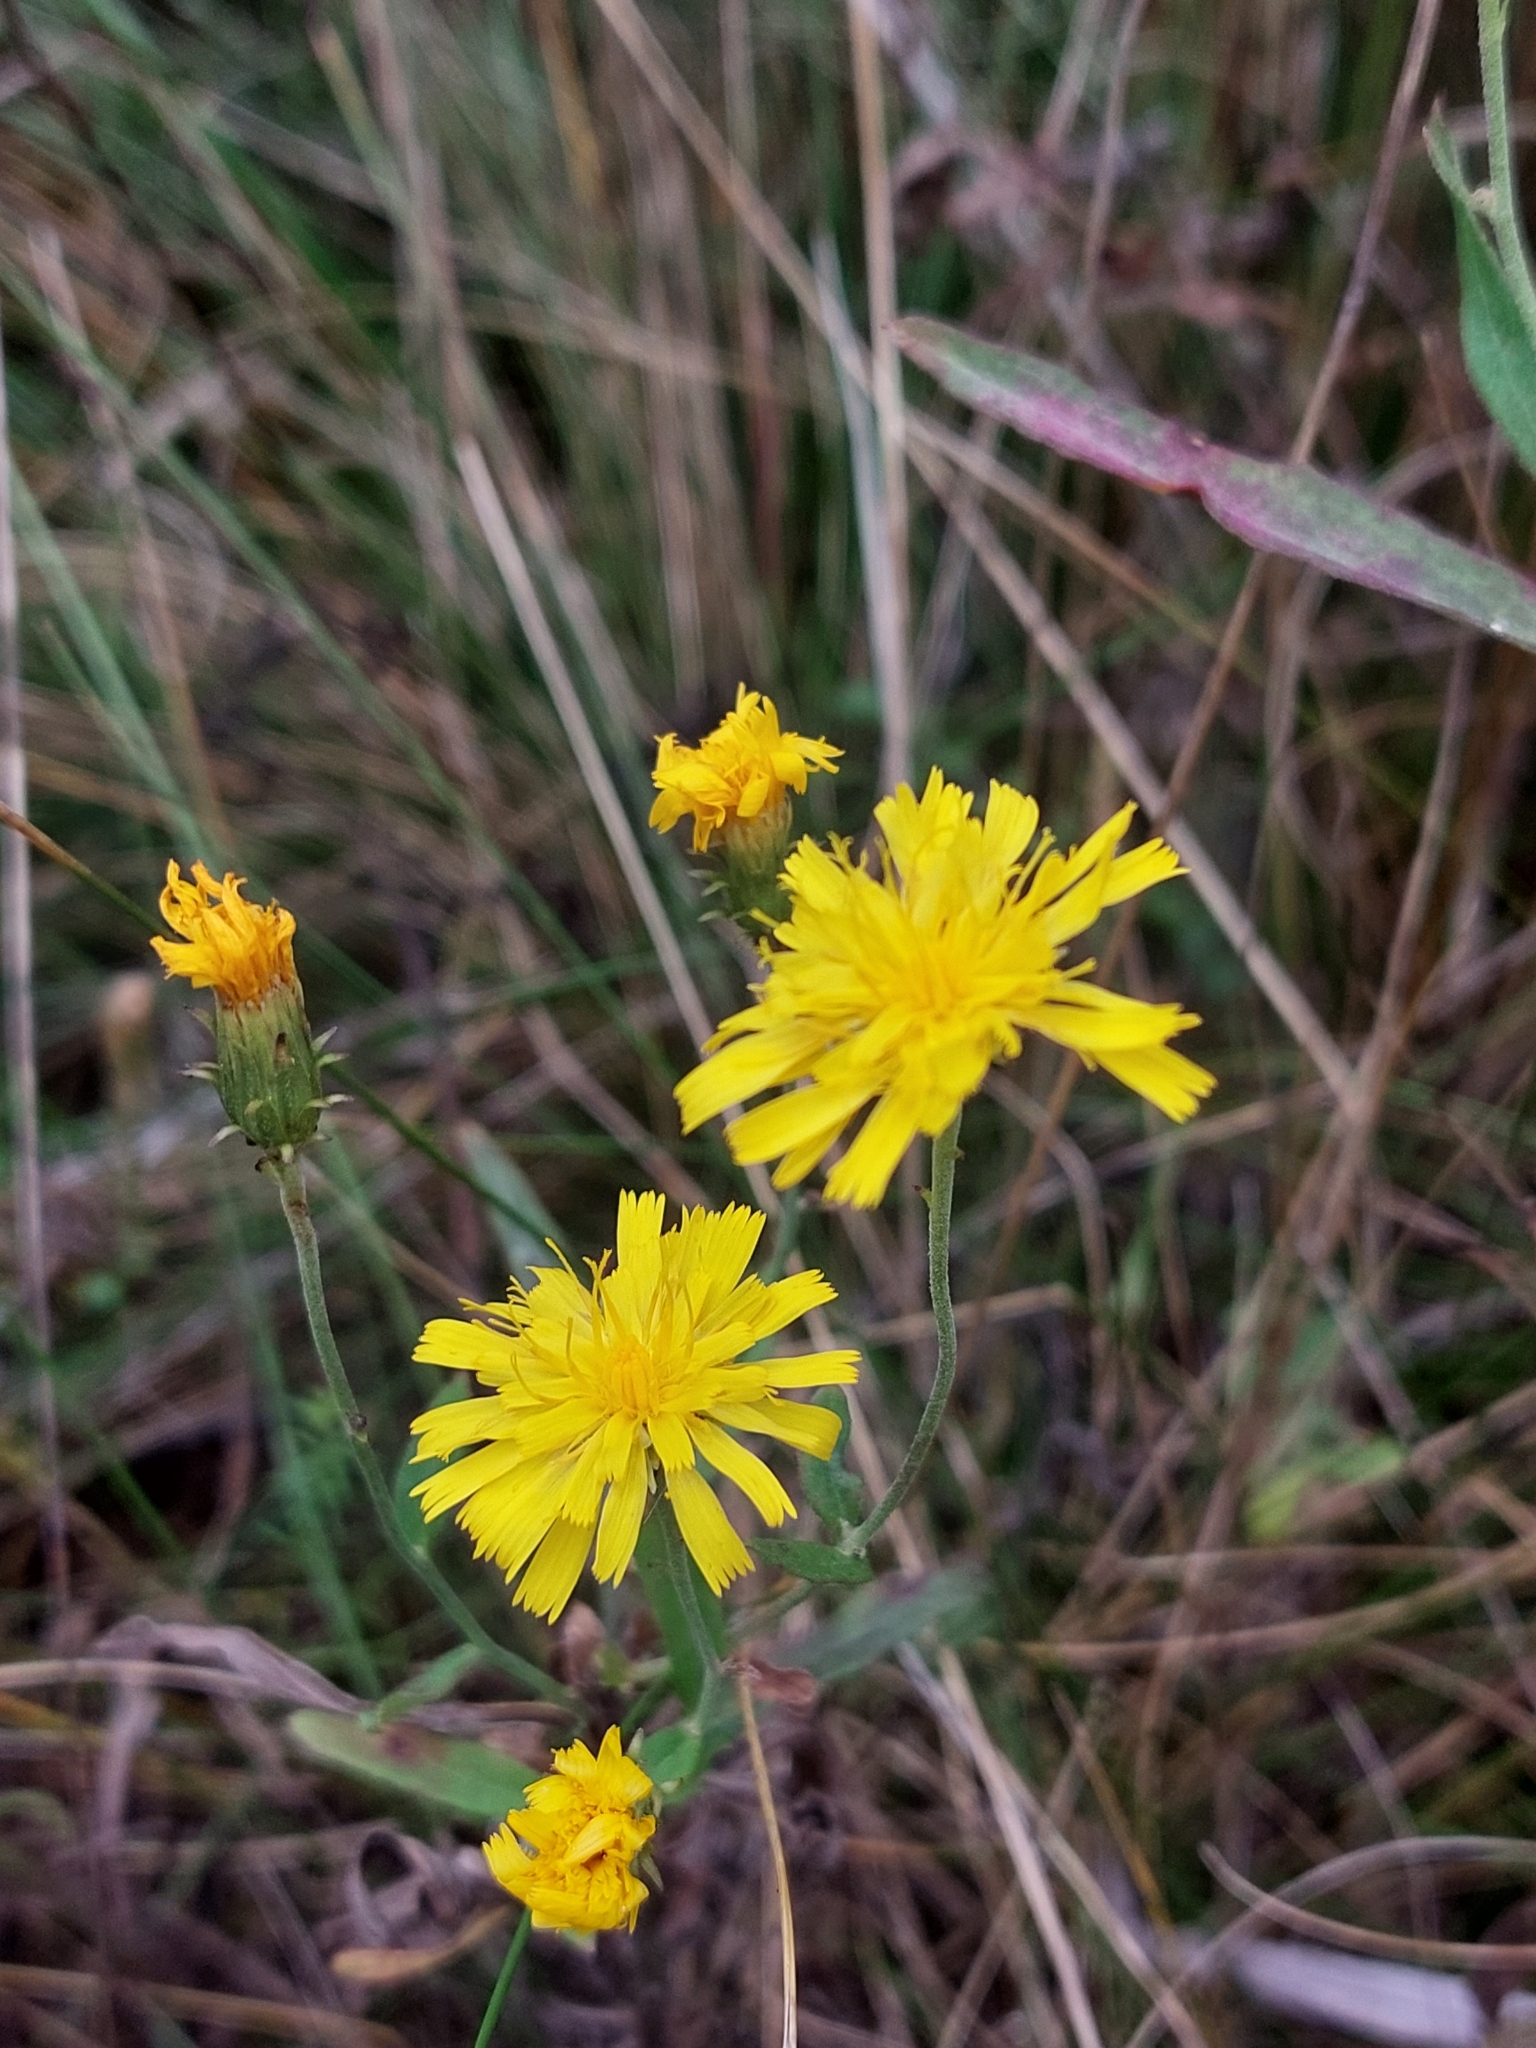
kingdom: Plantae
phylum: Tracheophyta
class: Magnoliopsida
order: Asterales
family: Asteraceae
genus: Hieracium
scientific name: Hieracium umbellatum
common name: Northern hawkweed
